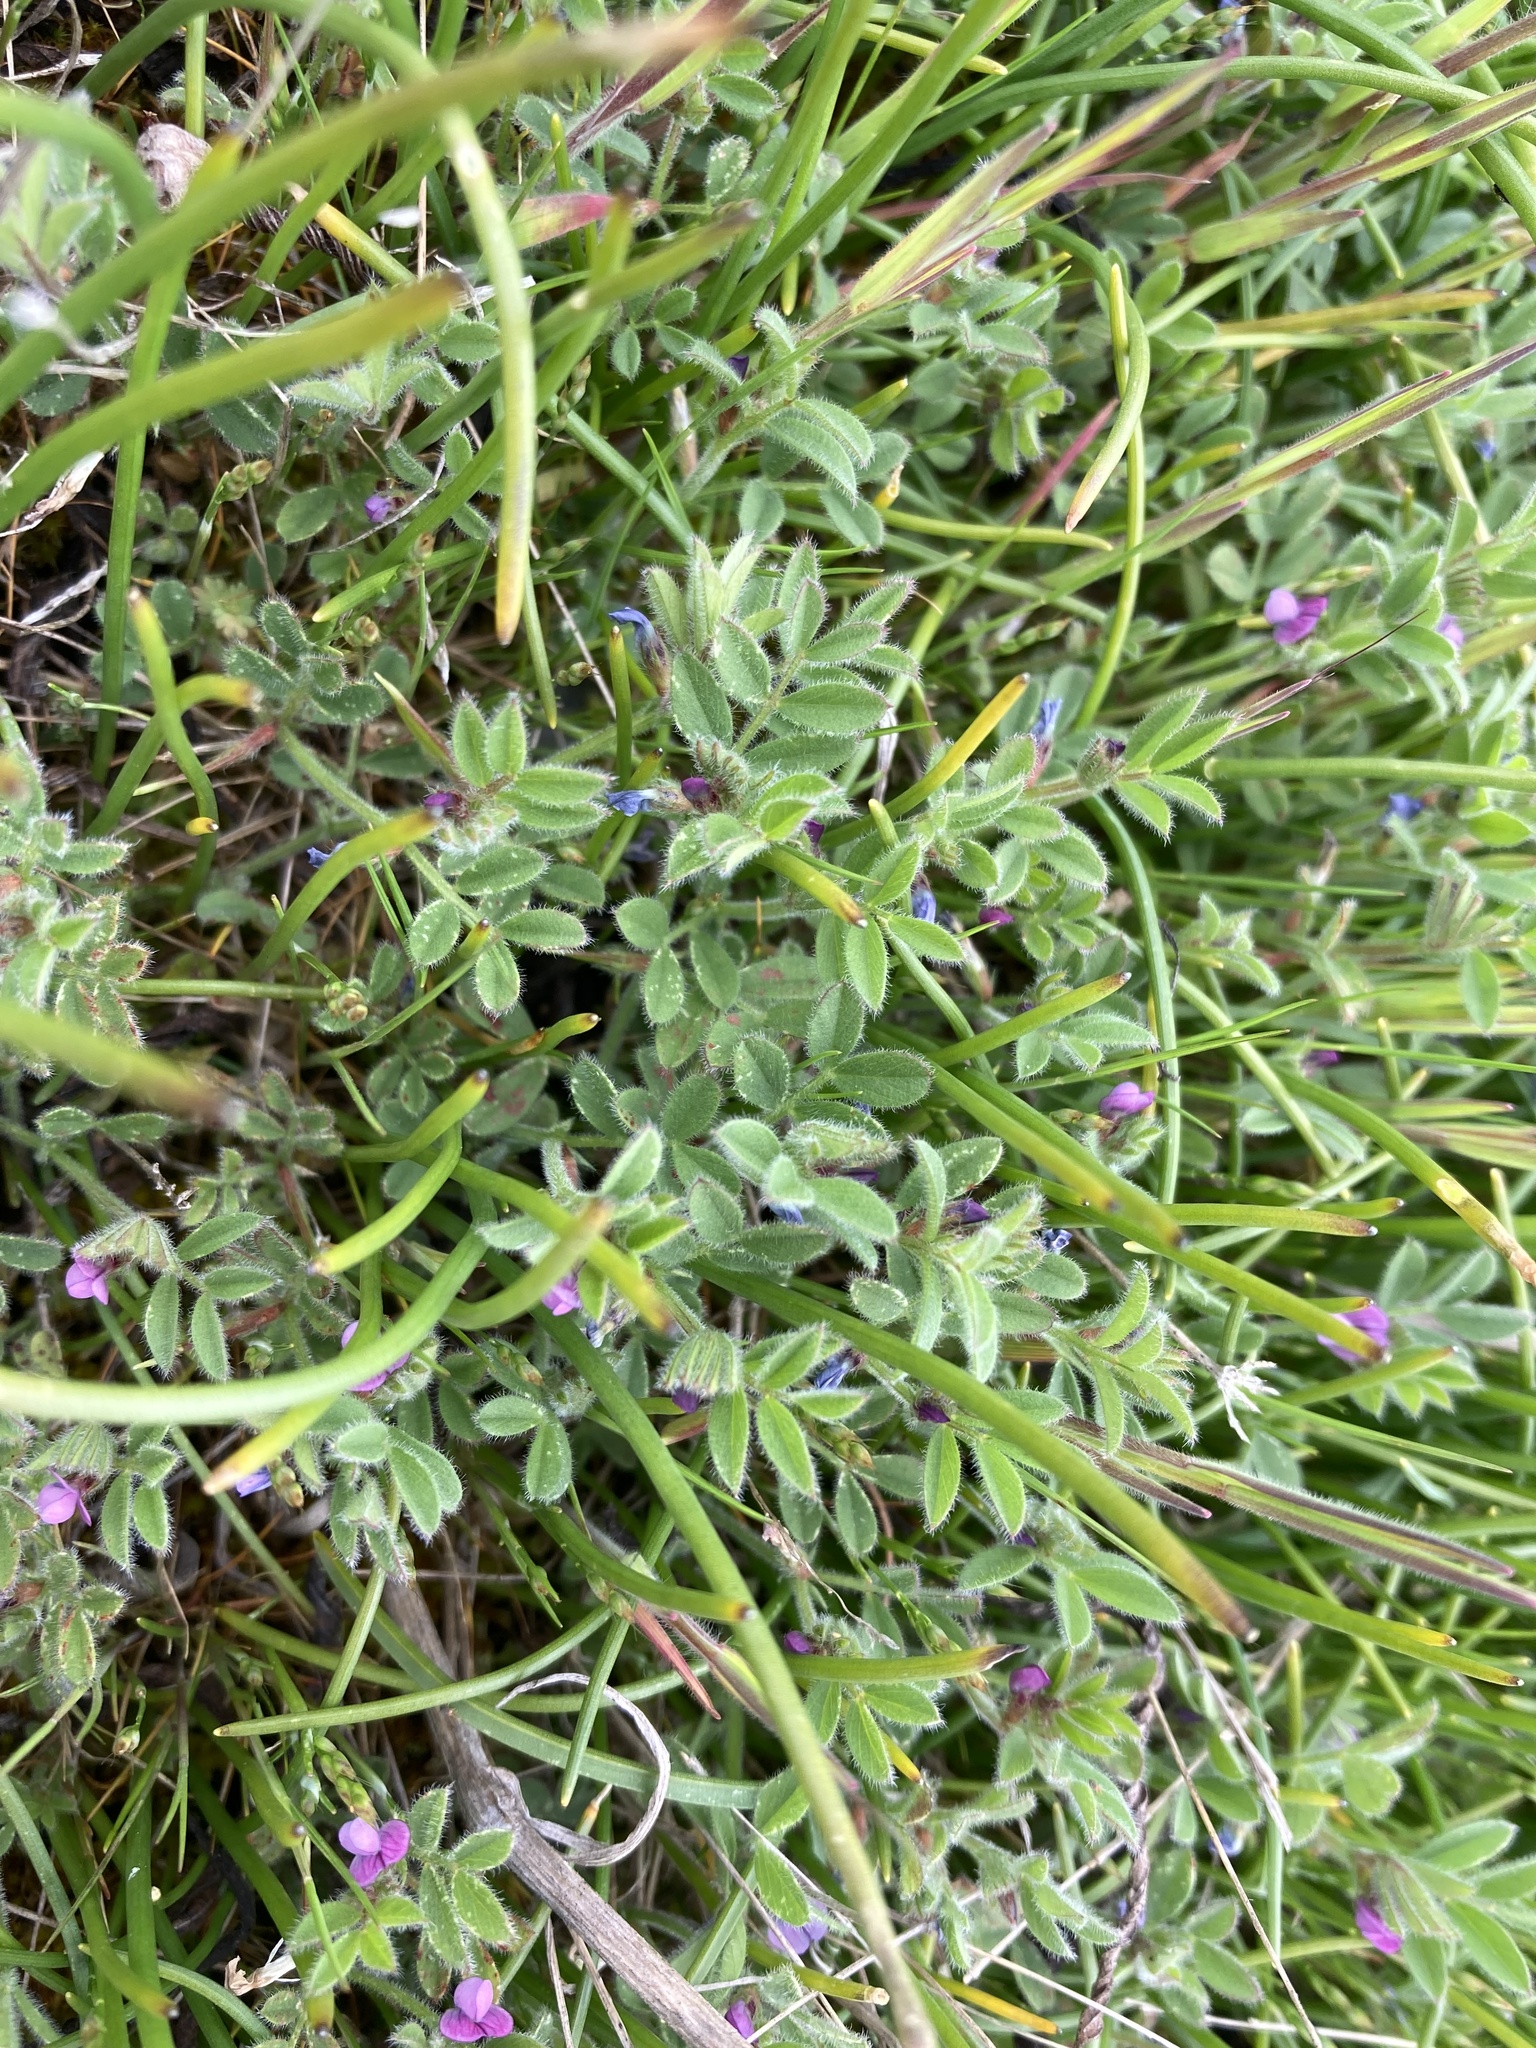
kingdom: Plantae
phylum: Tracheophyta
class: Magnoliopsida
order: Fabales
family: Fabaceae
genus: Vicia
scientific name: Vicia lathyroides
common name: Spring vetch
